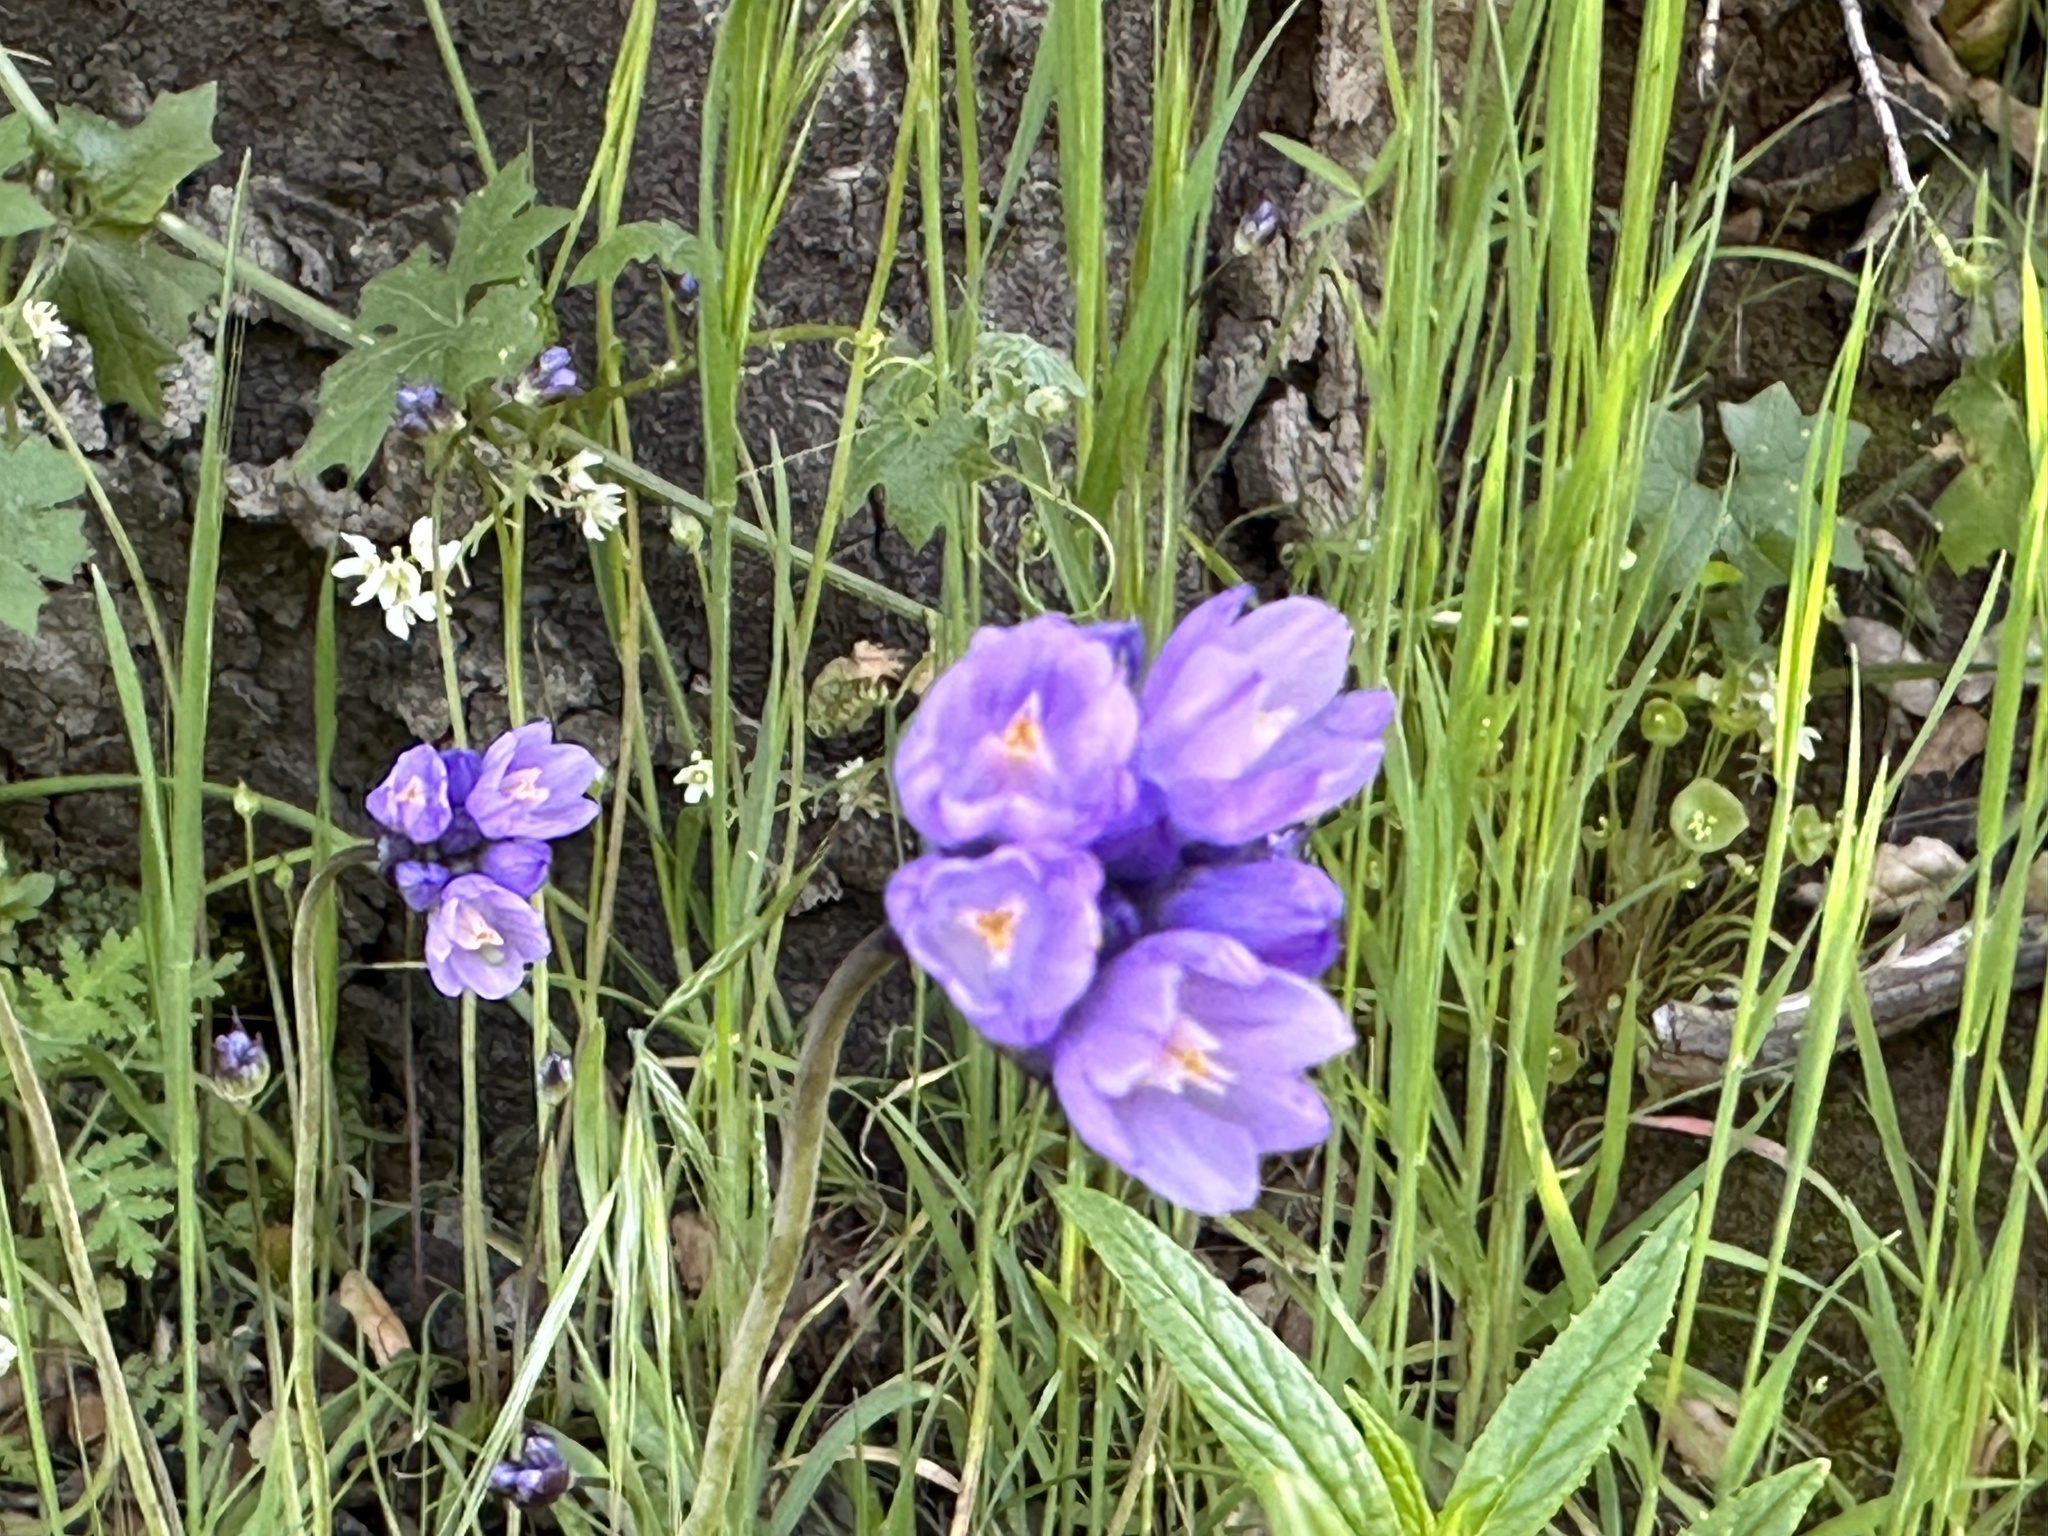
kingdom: Plantae
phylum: Tracheophyta
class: Liliopsida
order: Asparagales
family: Asparagaceae
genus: Dipterostemon
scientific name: Dipterostemon capitatus
